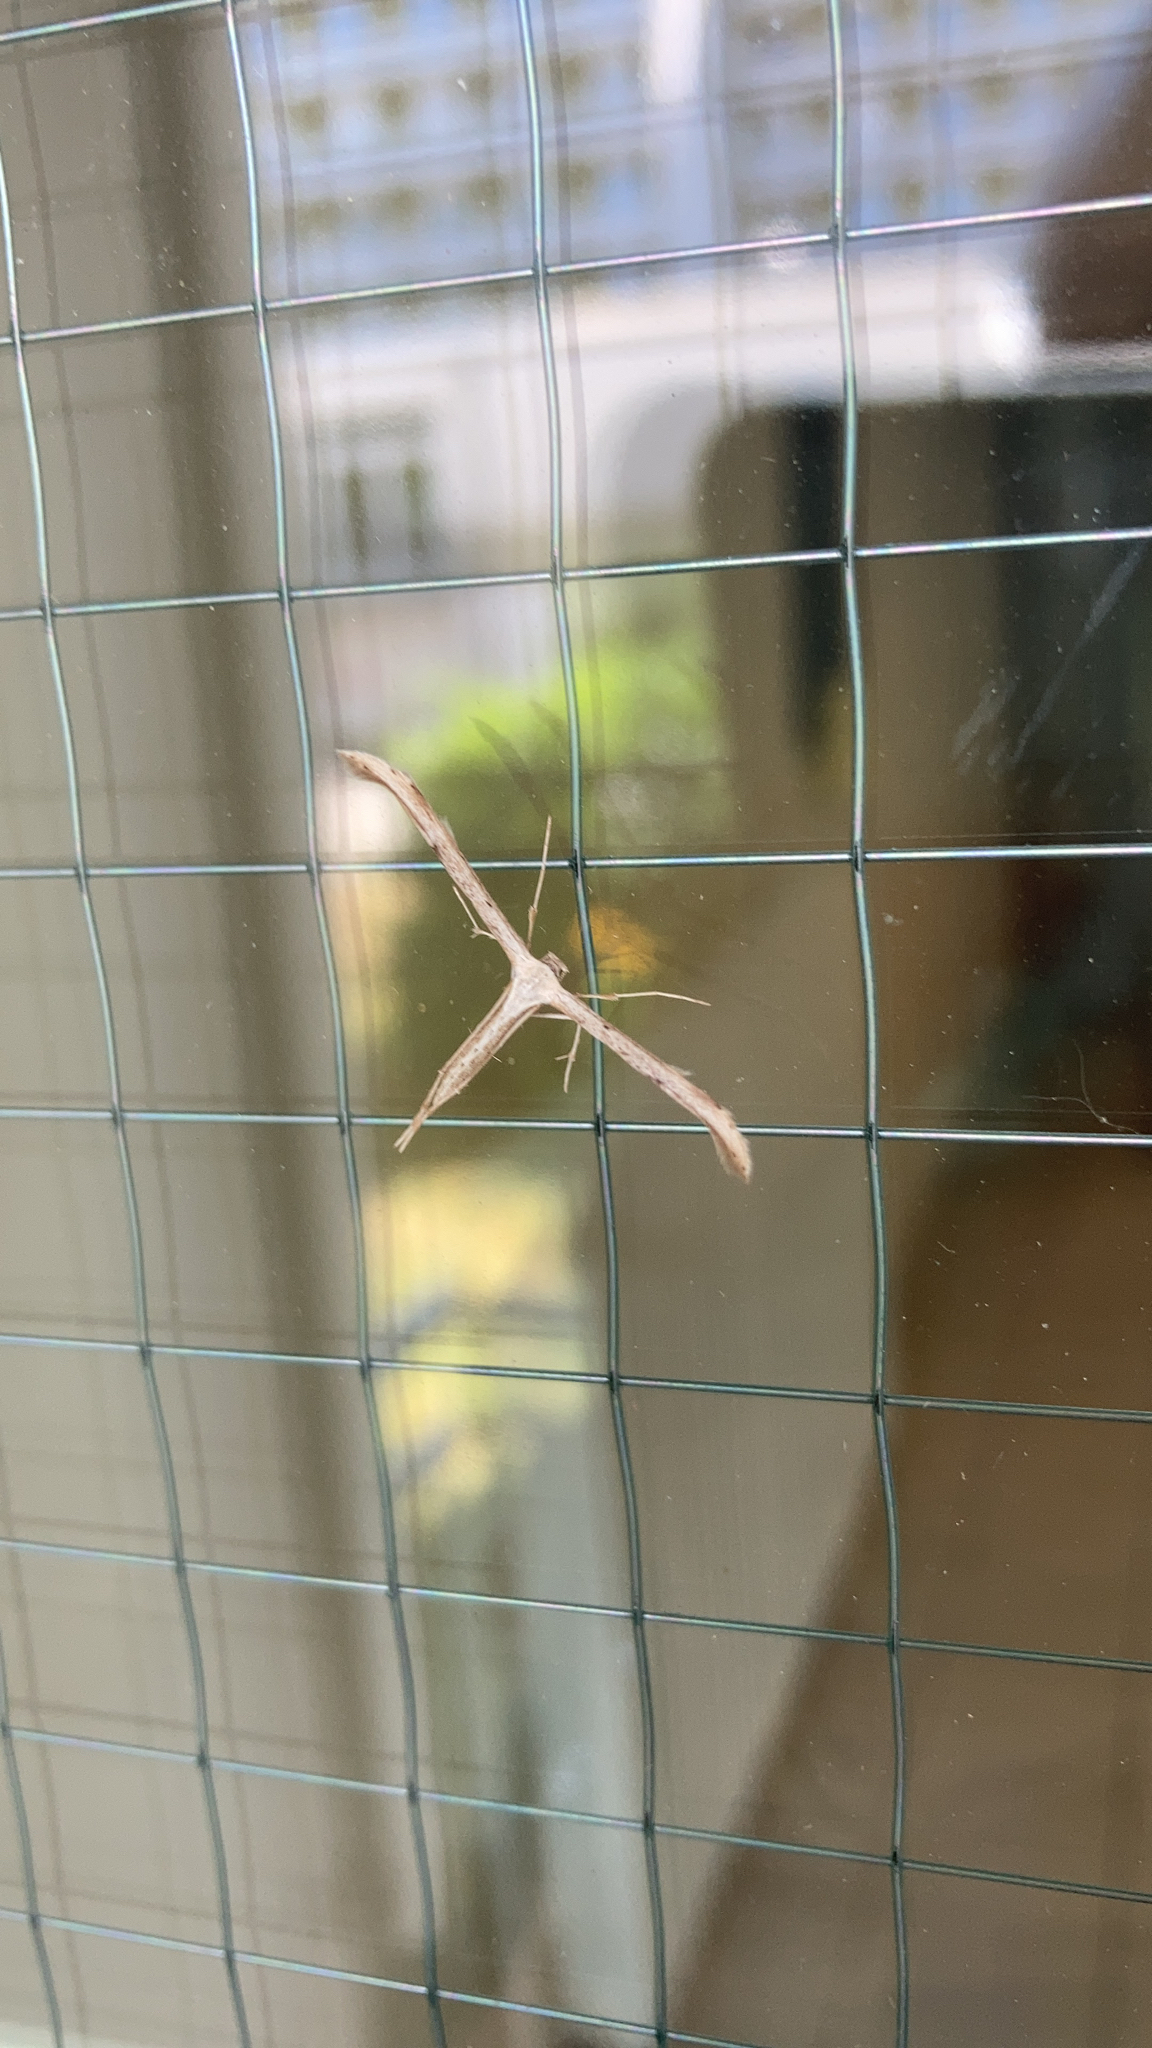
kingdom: Animalia
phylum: Arthropoda
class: Insecta
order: Lepidoptera
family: Pterophoridae
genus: Emmelina
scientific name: Emmelina monodactyla
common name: Common plume
